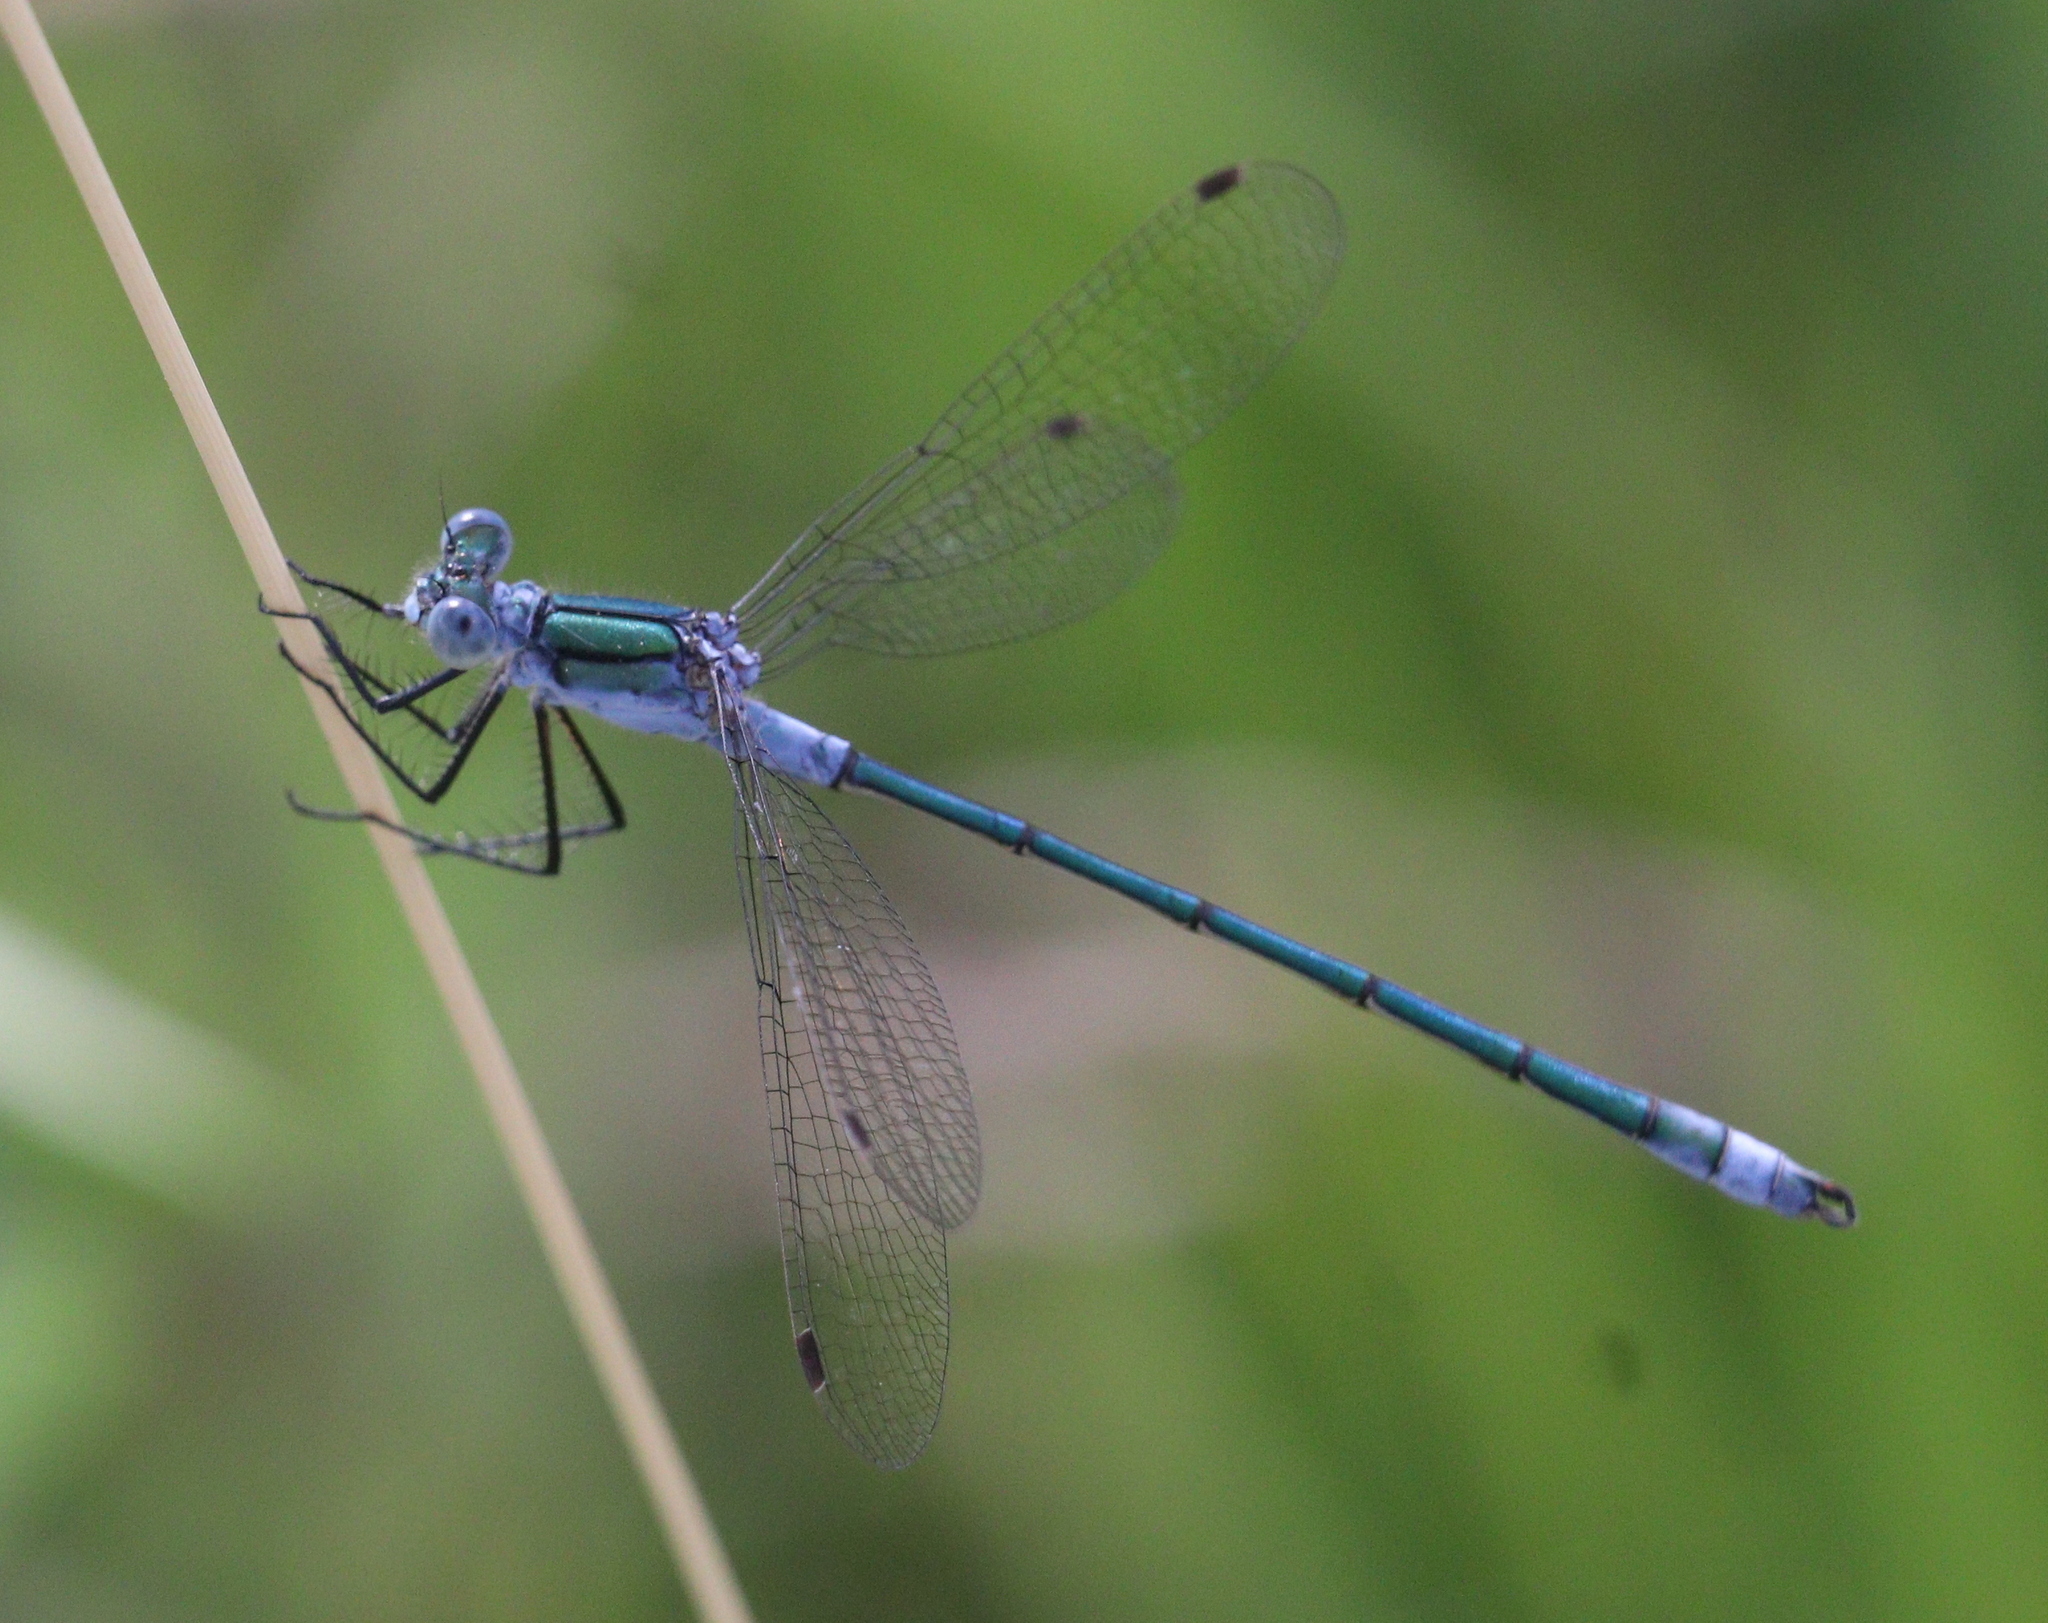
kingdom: Animalia
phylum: Arthropoda
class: Insecta
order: Odonata
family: Lestidae
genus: Lestes
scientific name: Lestes sponsa
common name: Common spreadwing
